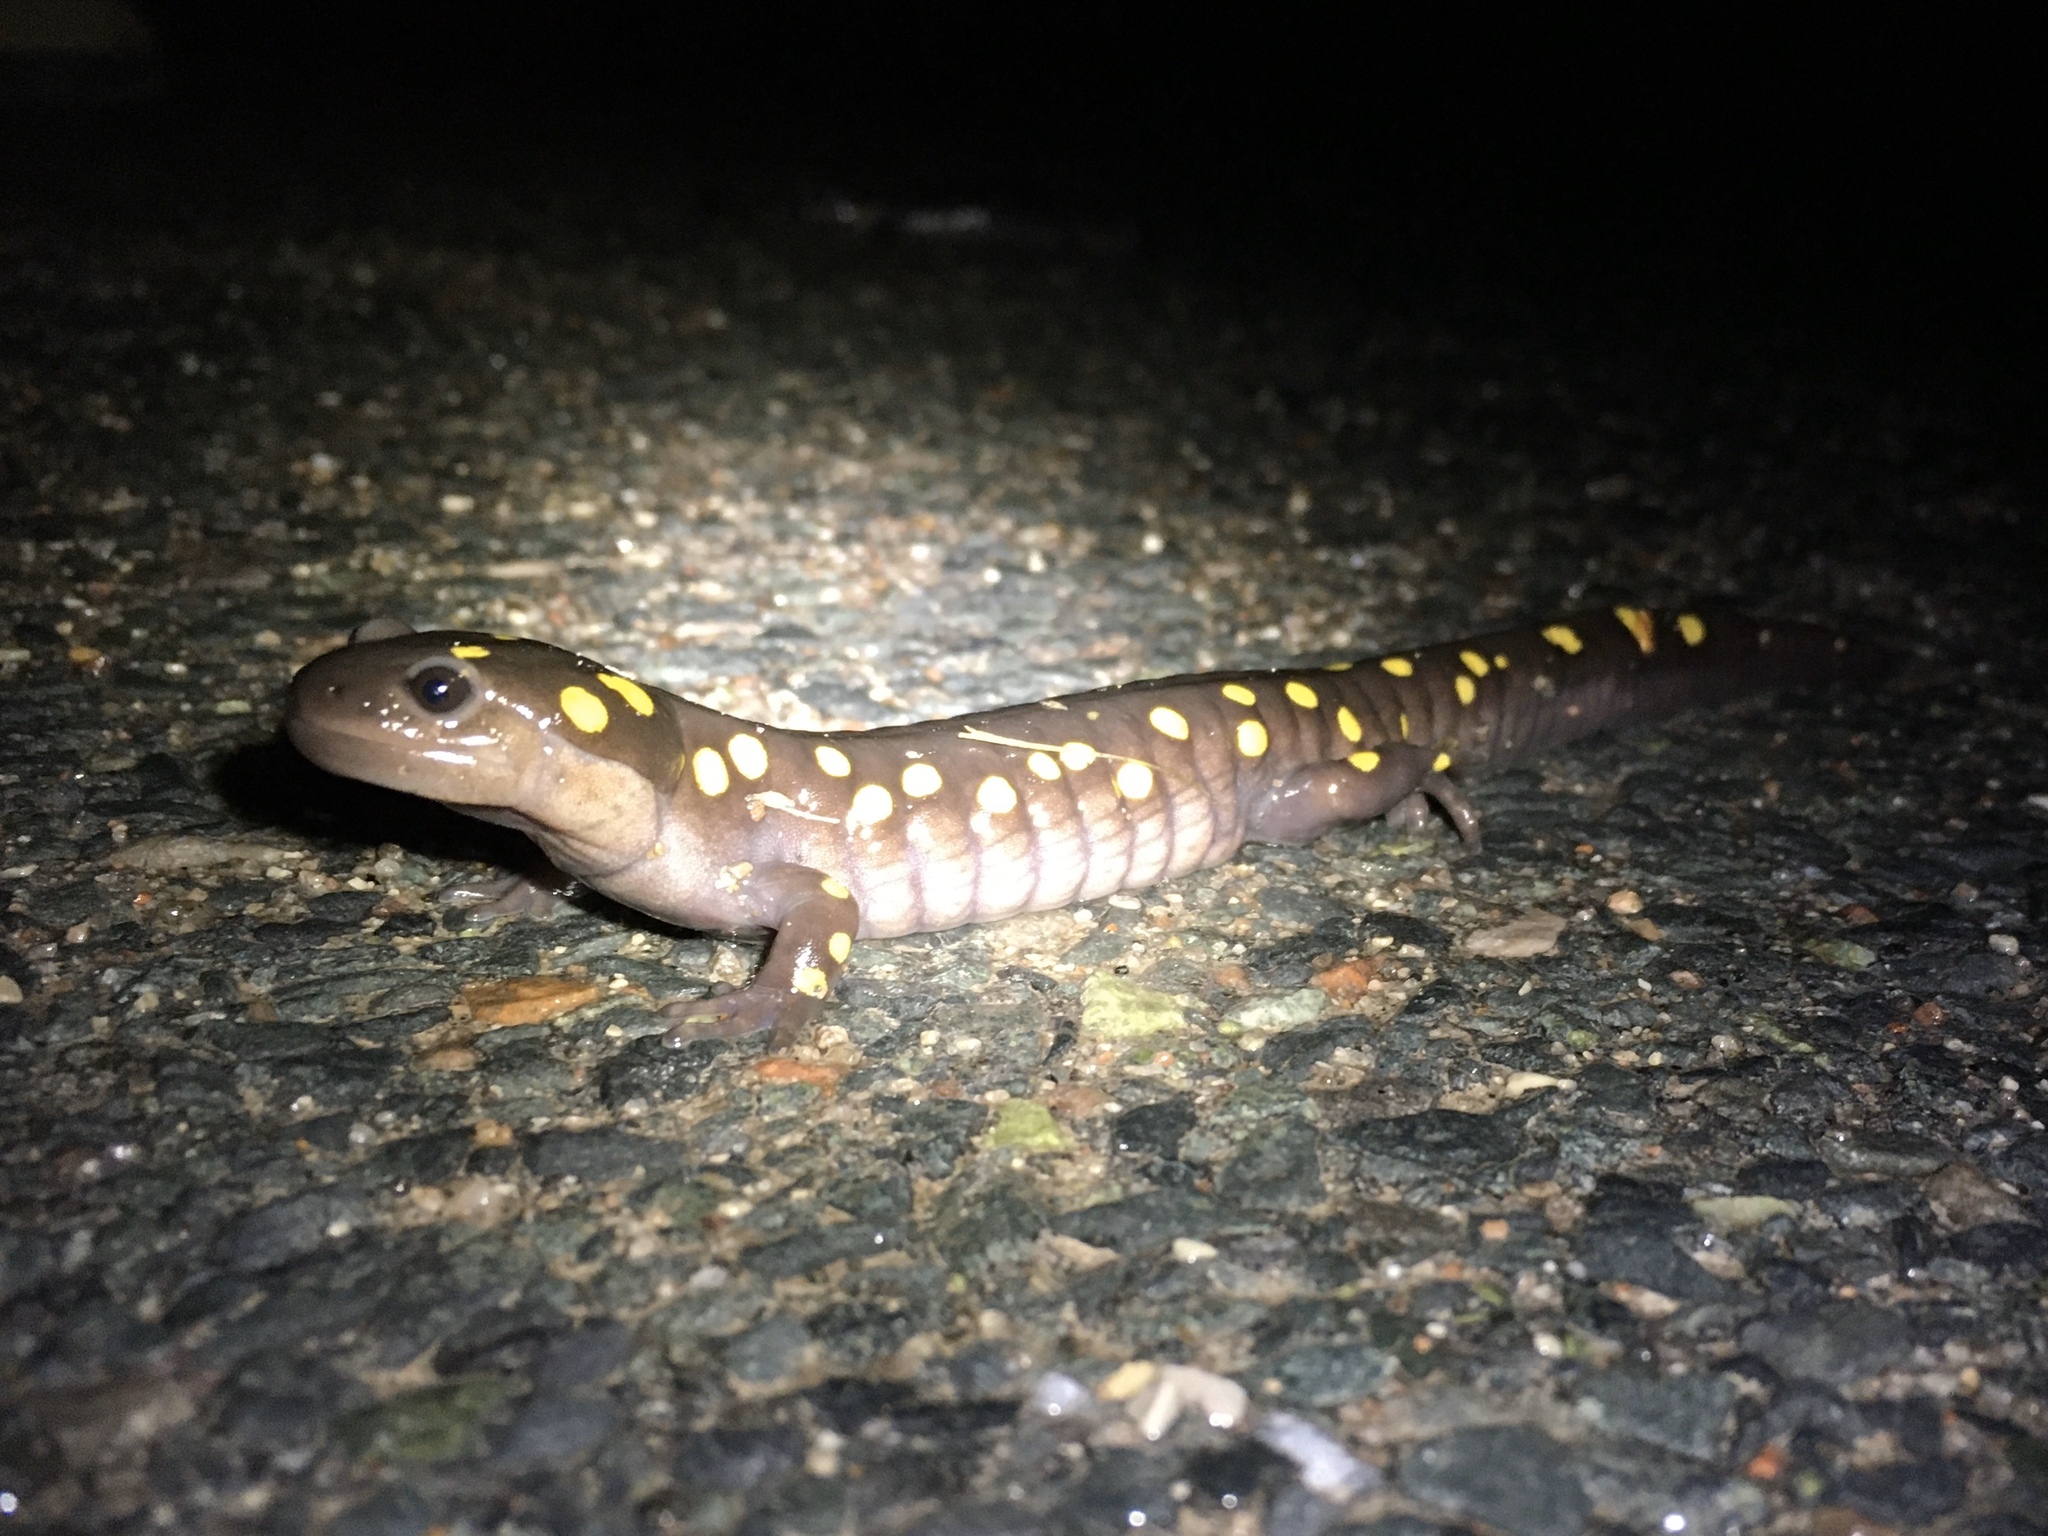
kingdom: Animalia
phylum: Chordata
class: Amphibia
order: Caudata
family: Ambystomatidae
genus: Ambystoma
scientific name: Ambystoma maculatum
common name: Spotted salamander
